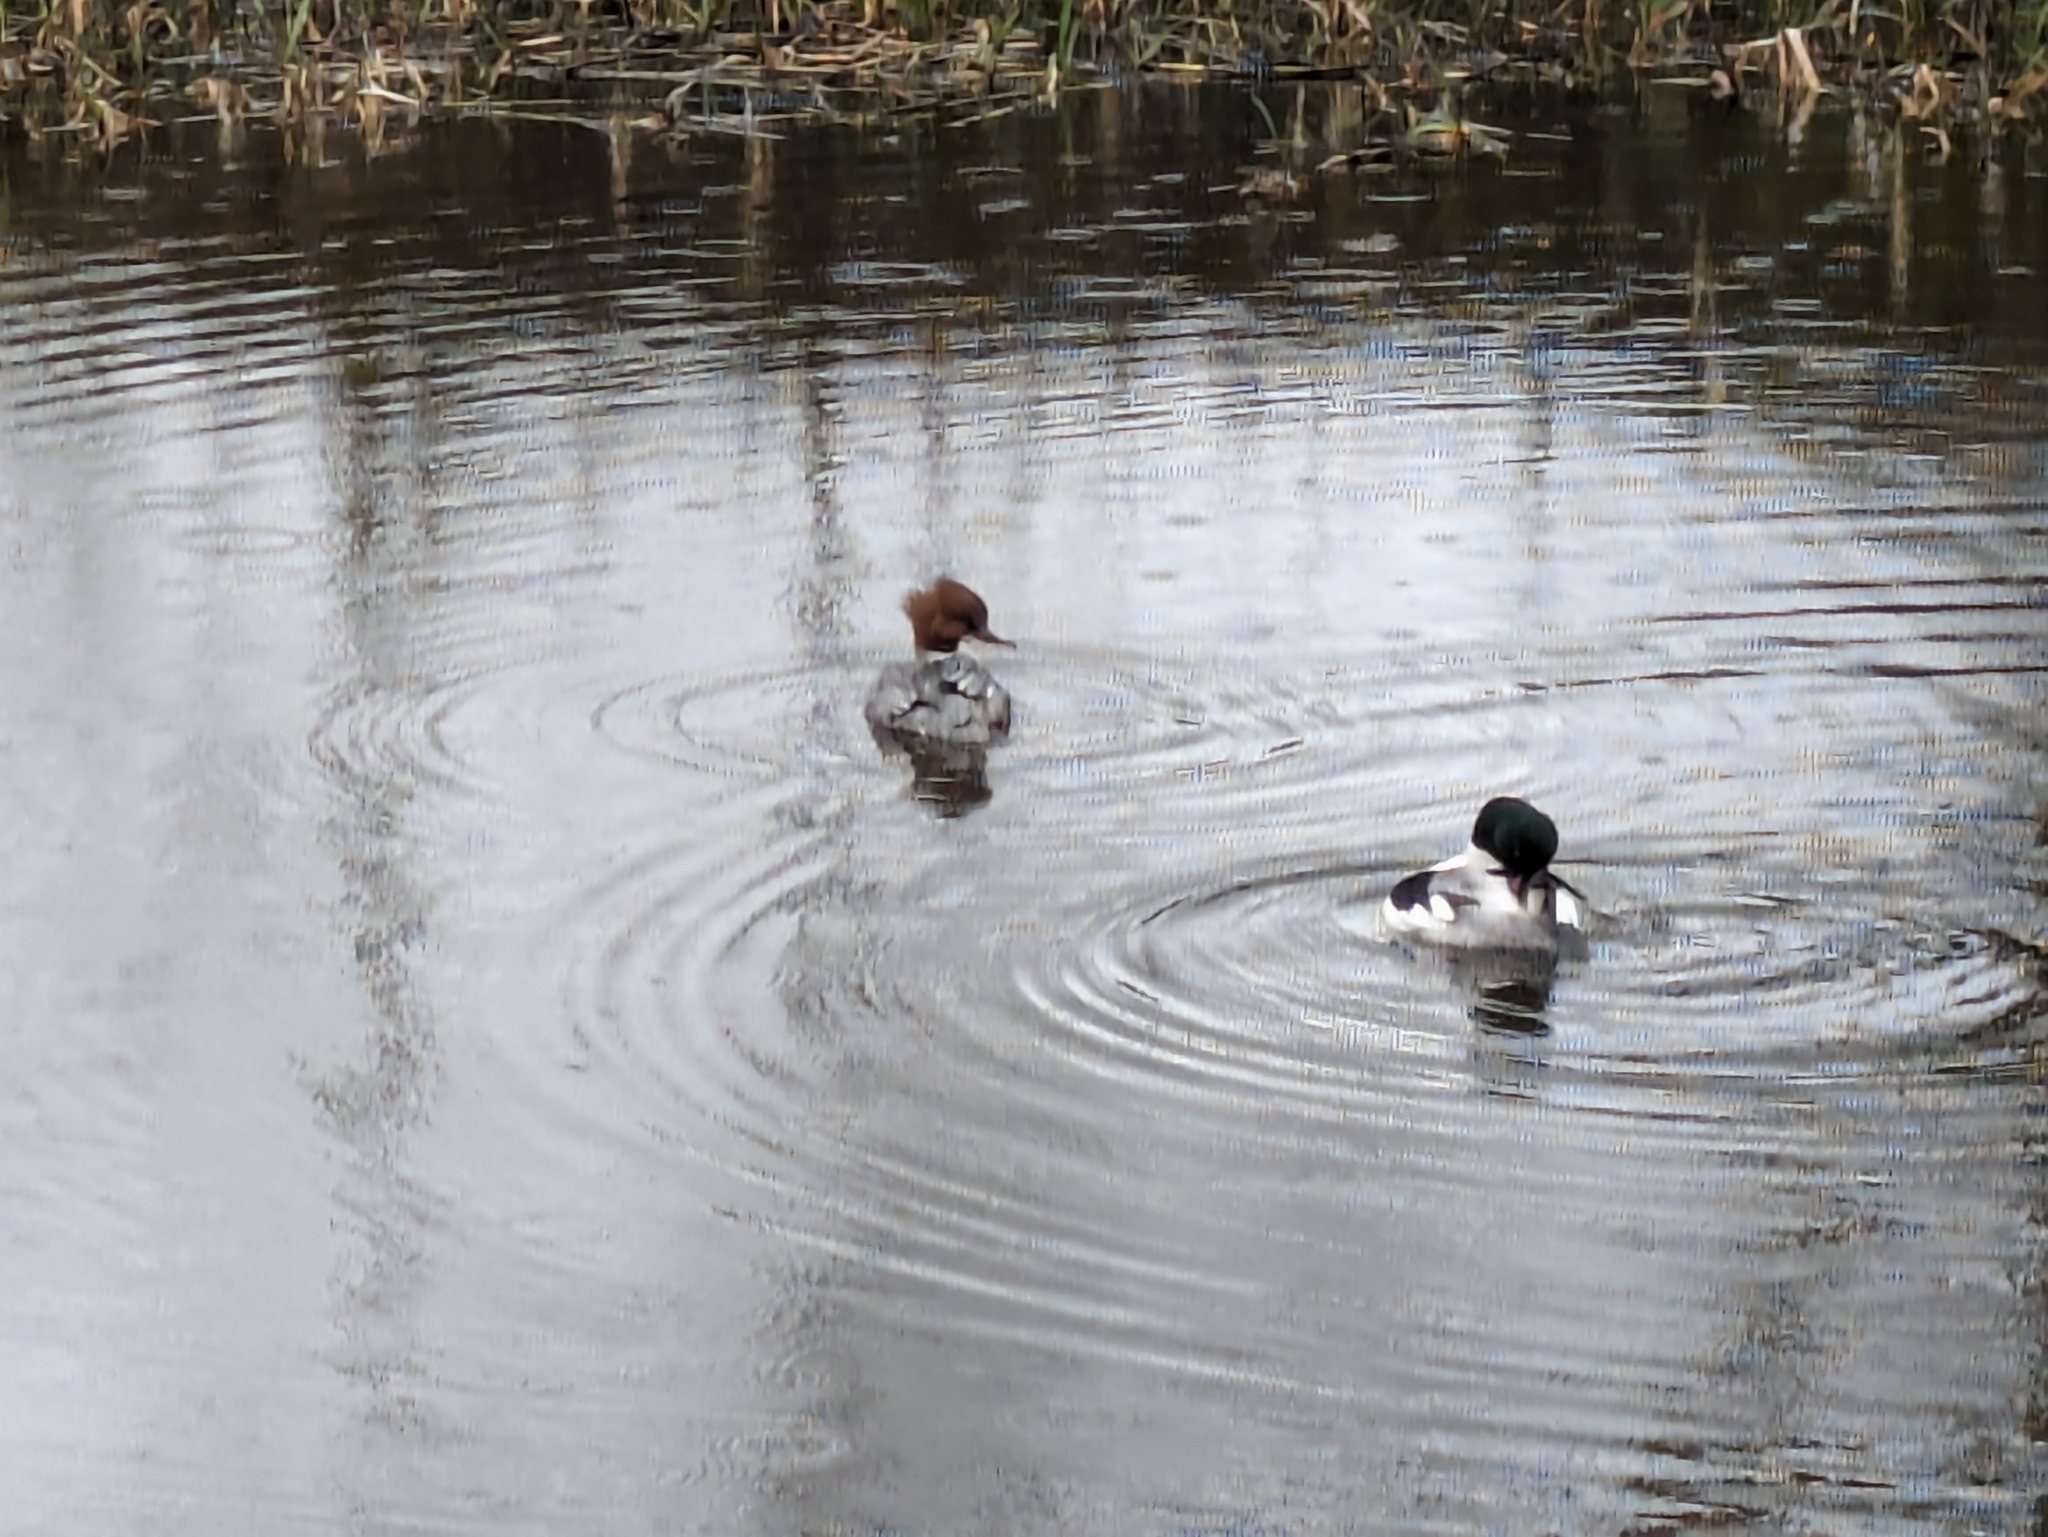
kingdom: Animalia
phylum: Chordata
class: Aves
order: Anseriformes
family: Anatidae
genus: Mergus
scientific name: Mergus merganser
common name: Common merganser
